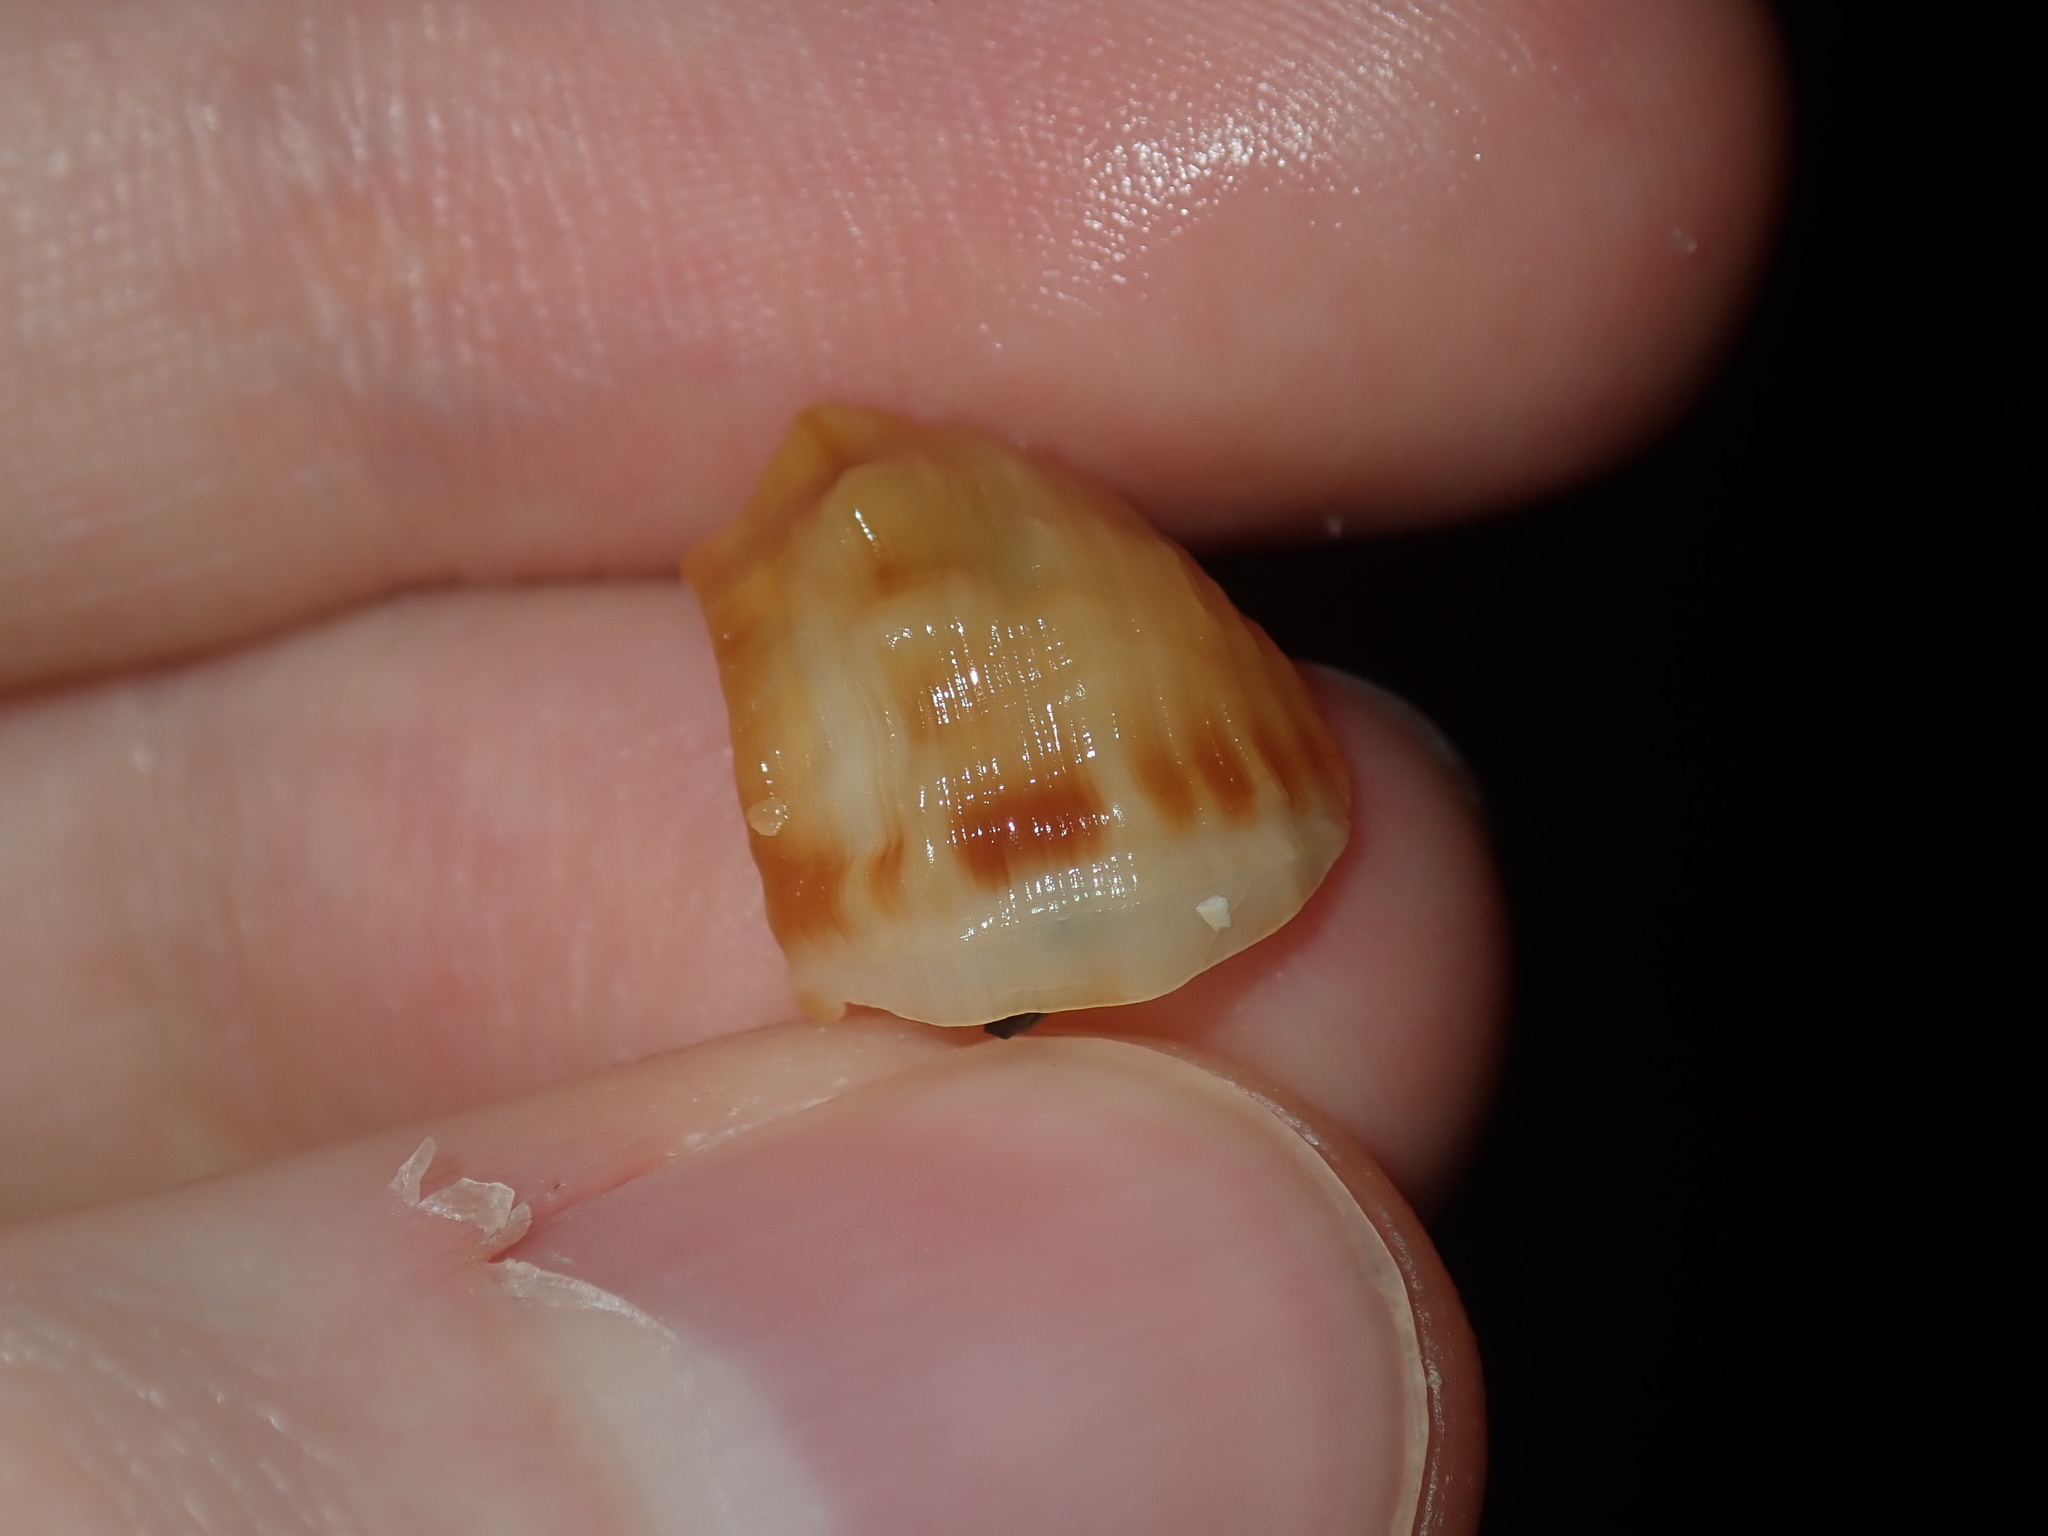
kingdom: Animalia
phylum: Mollusca
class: Gastropoda
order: Littorinimorpha
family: Ranellidae
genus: Ranella
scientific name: Ranella australasia
